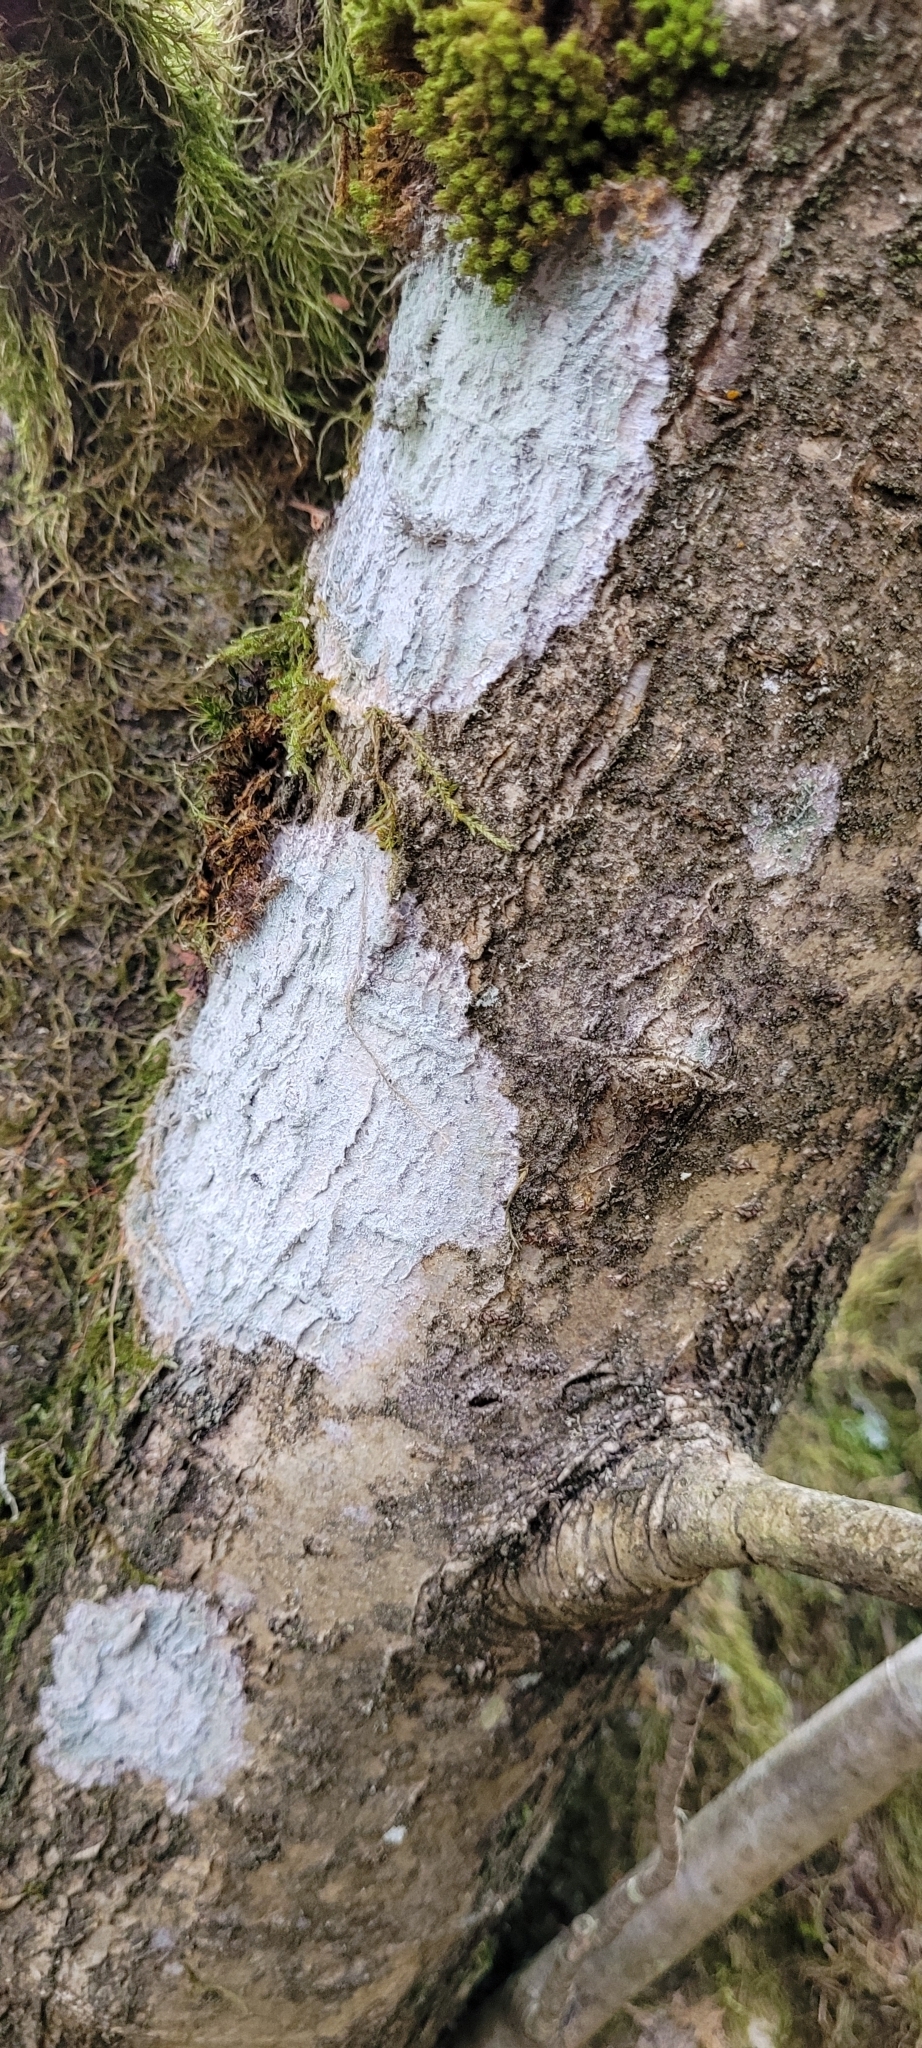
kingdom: Fungi
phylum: Ascomycota
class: Lecanoromycetes
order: Ostropales
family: Phlyctidaceae
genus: Phlyctis
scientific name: Phlyctis argena
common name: Whitewash lichen
